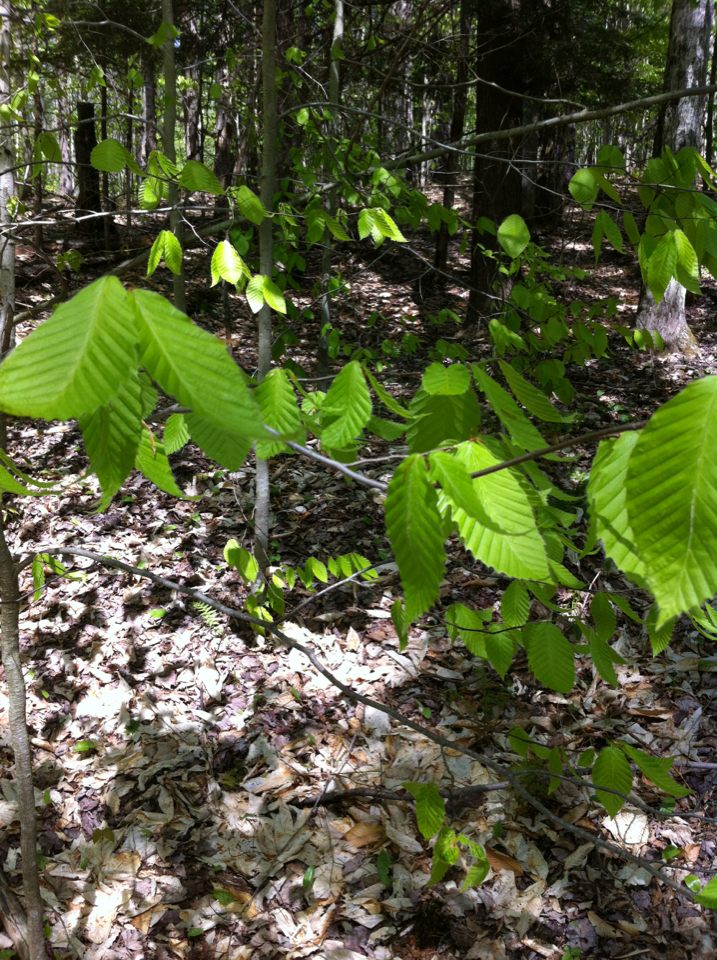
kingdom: Plantae
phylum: Tracheophyta
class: Magnoliopsida
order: Fagales
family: Fagaceae
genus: Fagus
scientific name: Fagus grandifolia
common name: American beech
